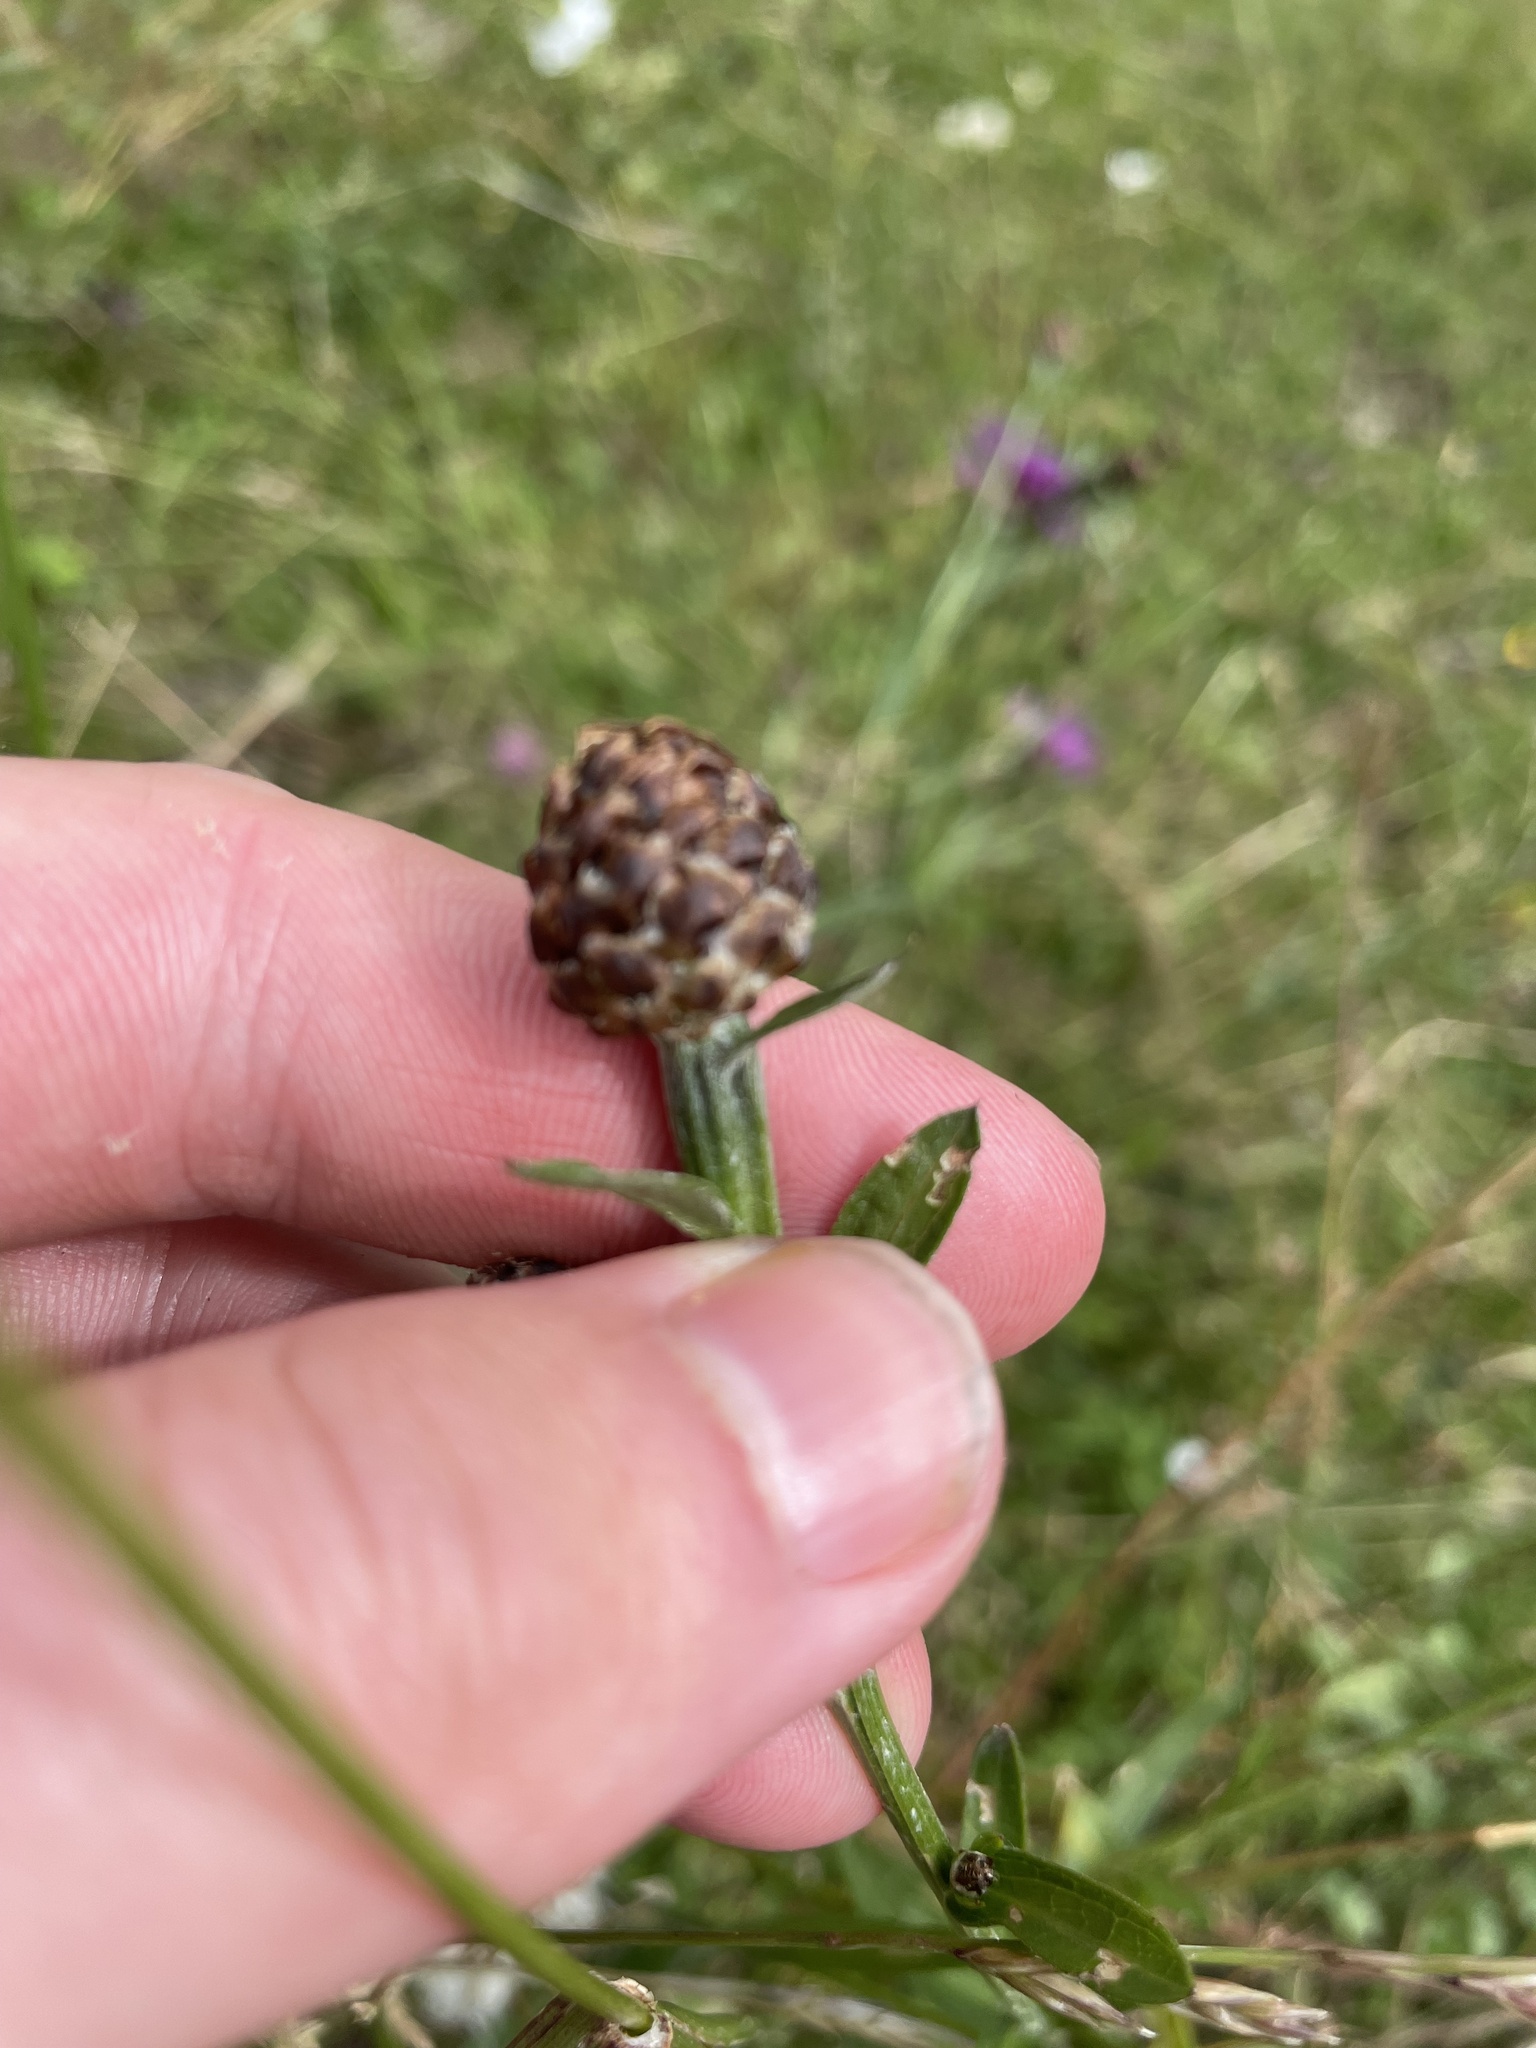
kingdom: Plantae
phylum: Tracheophyta
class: Magnoliopsida
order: Asterales
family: Asteraceae
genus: Centaurea
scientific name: Centaurea jacea
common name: Brown knapweed
